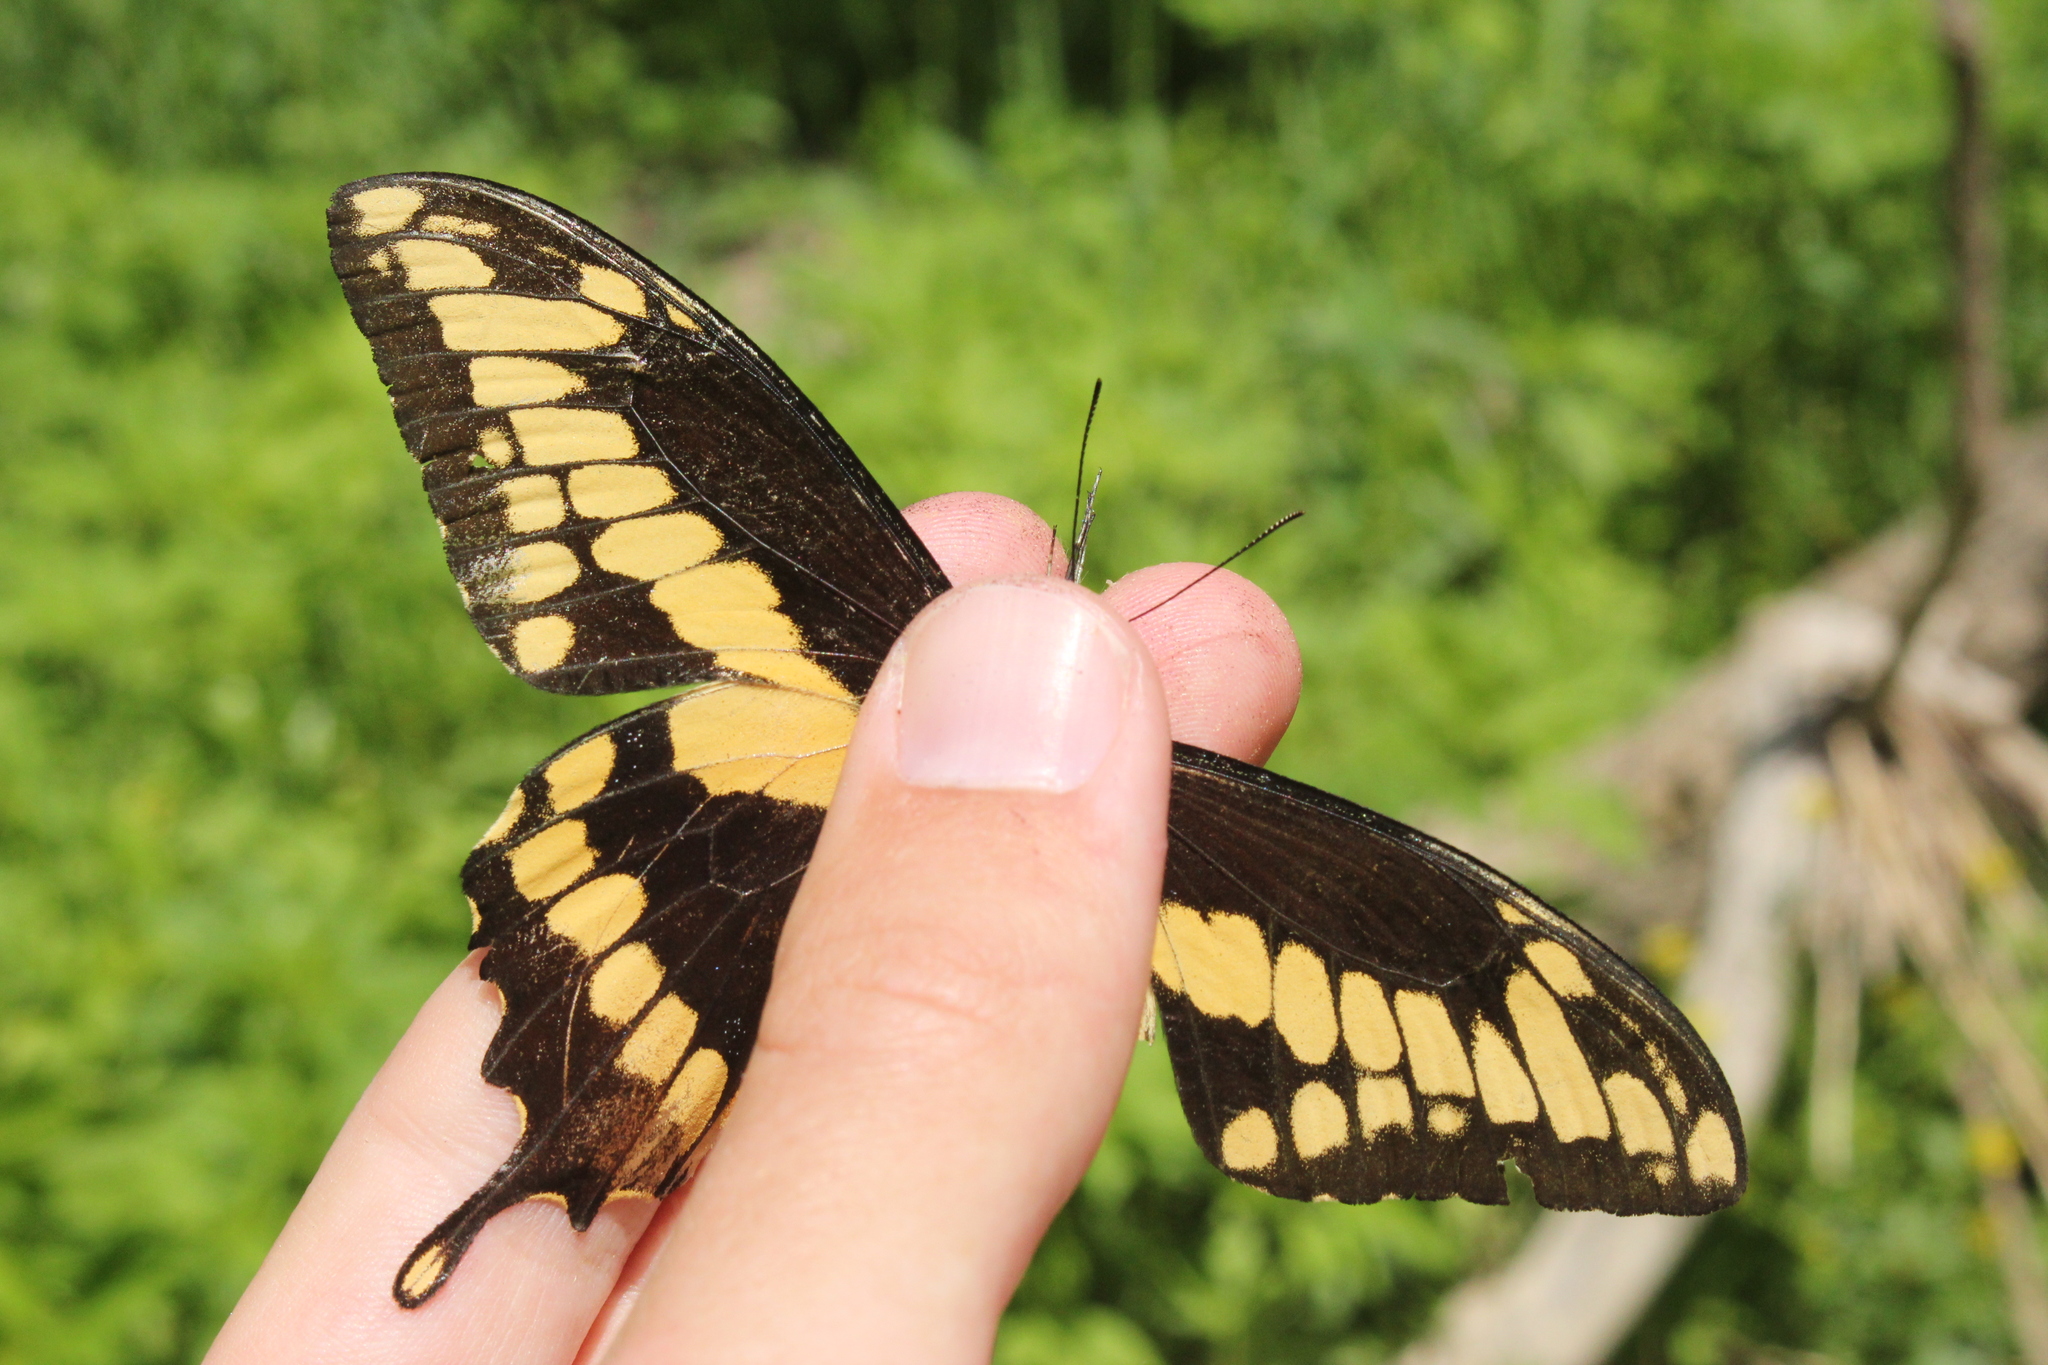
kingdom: Animalia
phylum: Arthropoda
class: Insecta
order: Lepidoptera
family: Papilionidae
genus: Papilio
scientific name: Papilio cresphontes
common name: Giant swallowtail
